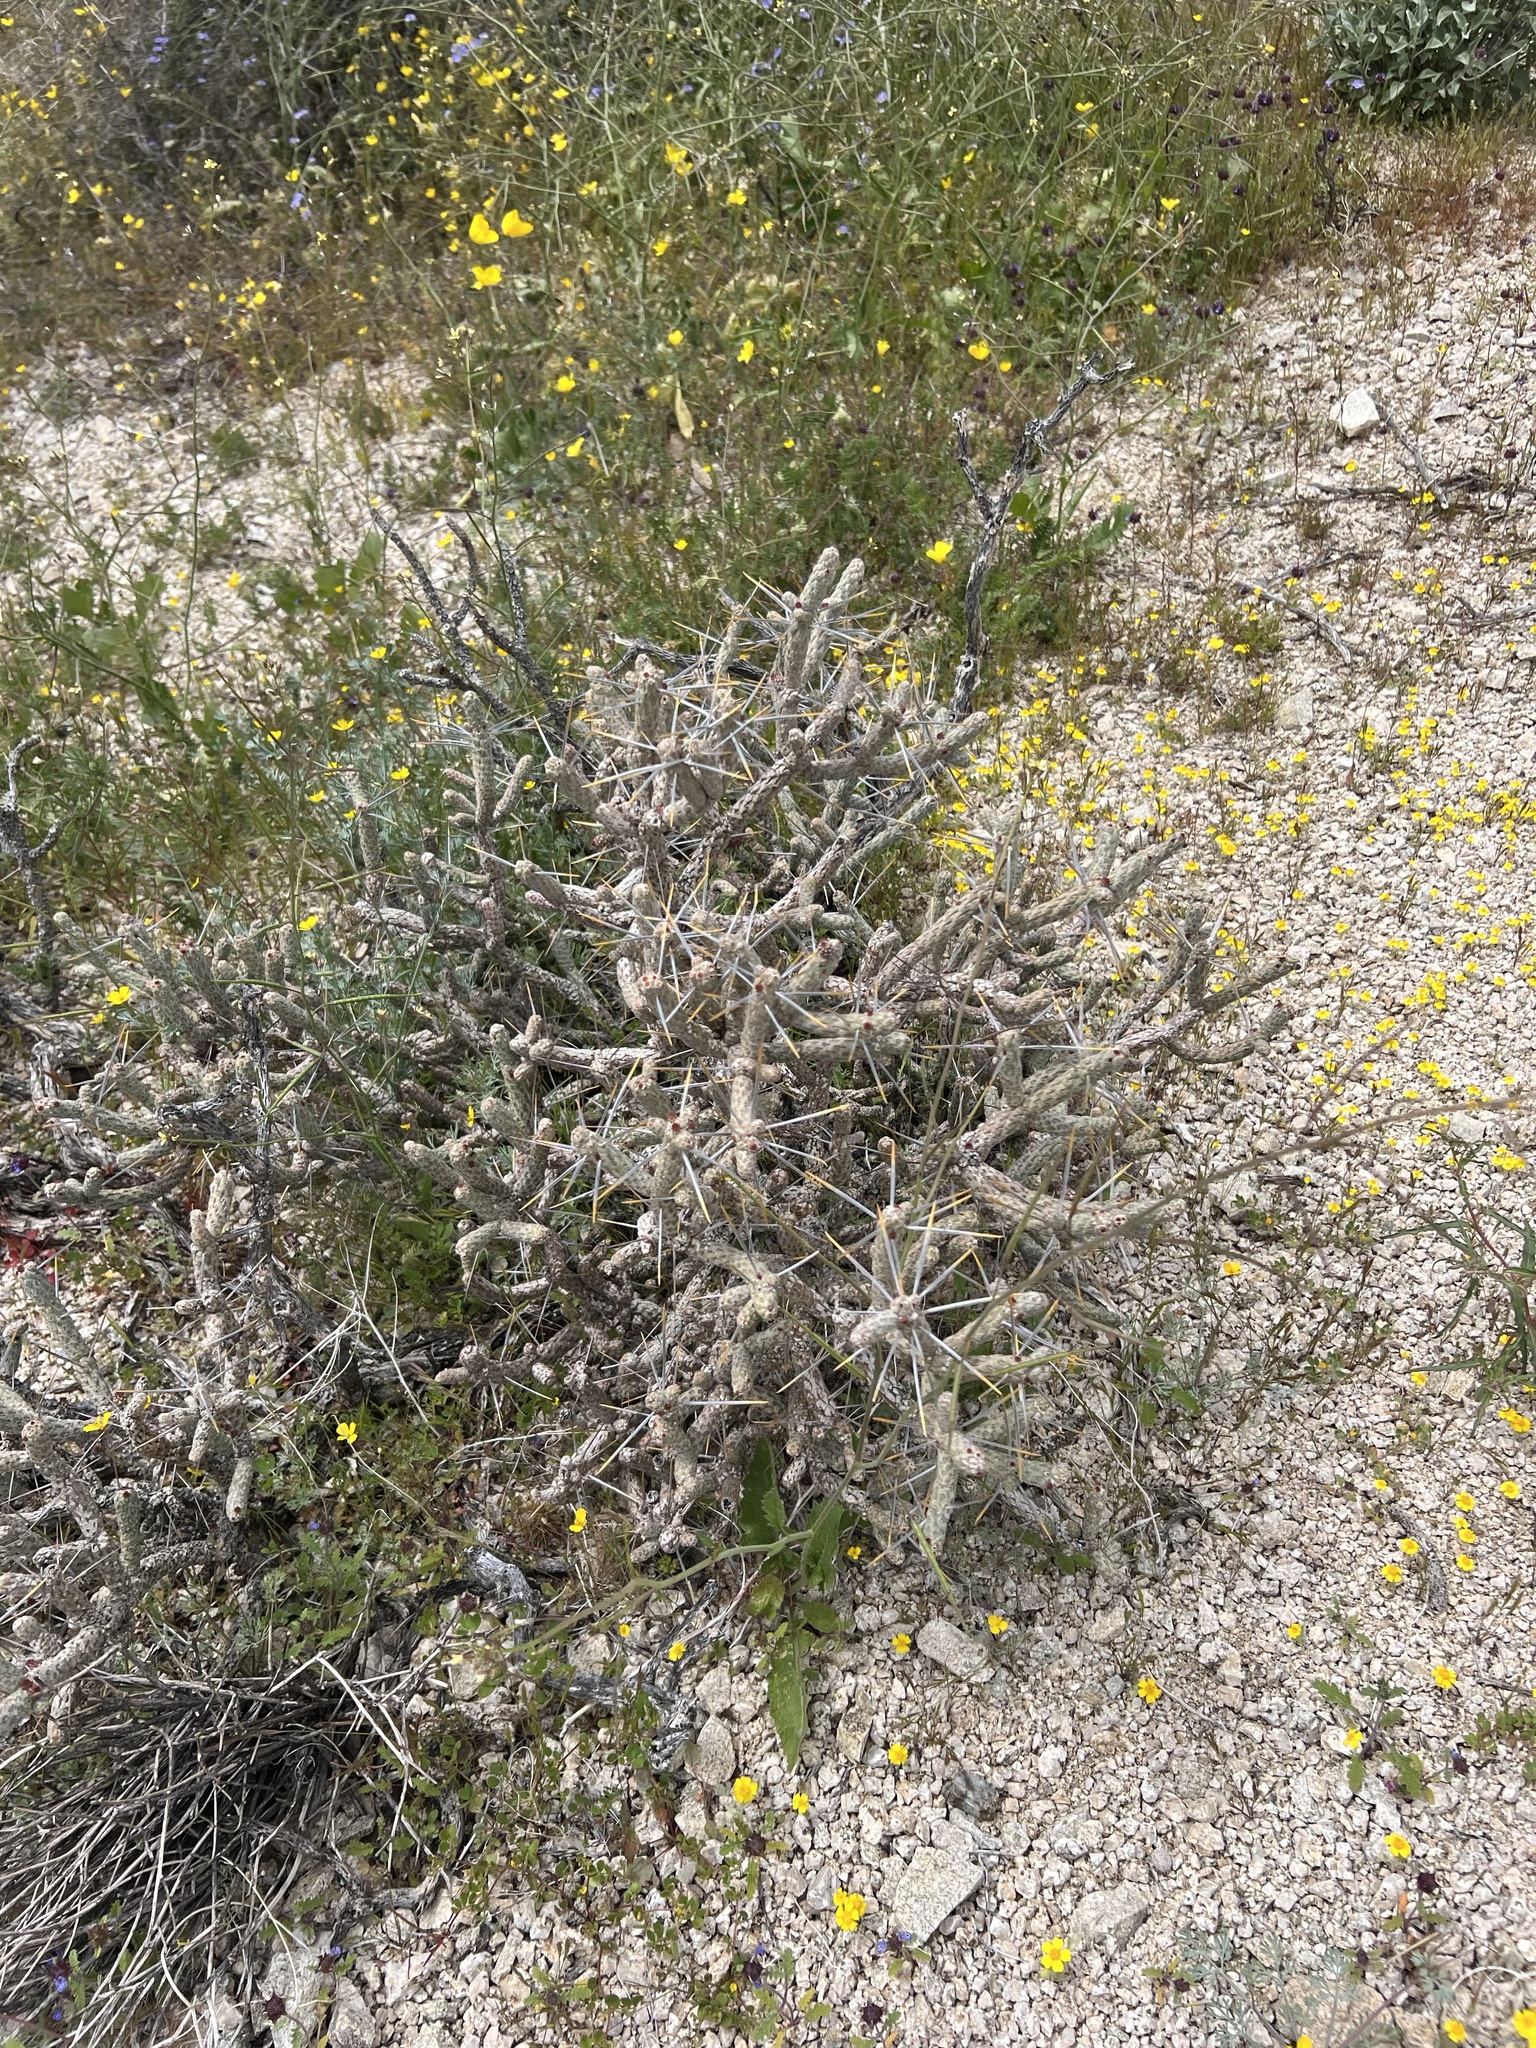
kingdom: Plantae
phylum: Tracheophyta
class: Magnoliopsida
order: Caryophyllales
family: Cactaceae
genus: Cylindropuntia
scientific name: Cylindropuntia ramosissima
